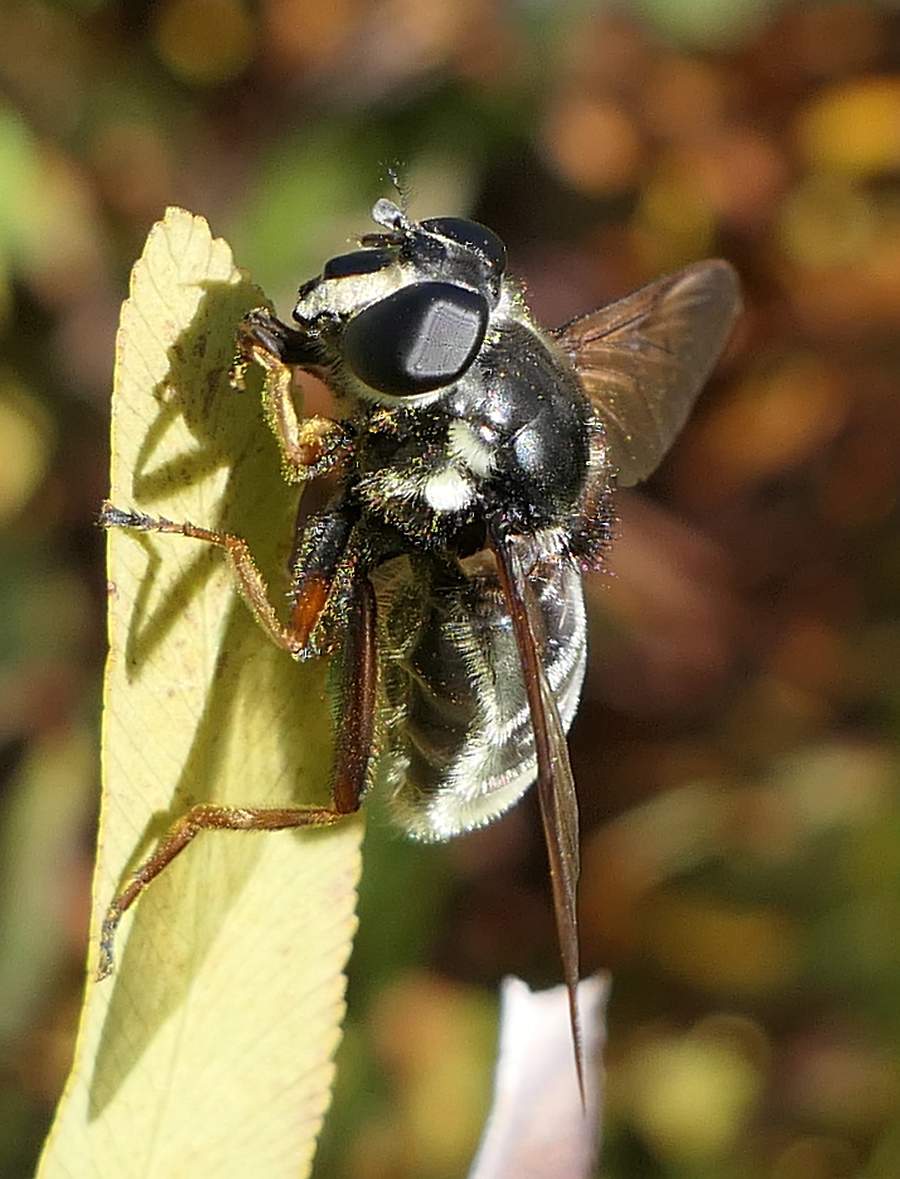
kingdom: Animalia
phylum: Arthropoda
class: Insecta
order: Diptera
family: Syrphidae
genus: Sericomyia
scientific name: Sericomyia militaris
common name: Narrow-banded pond fly
